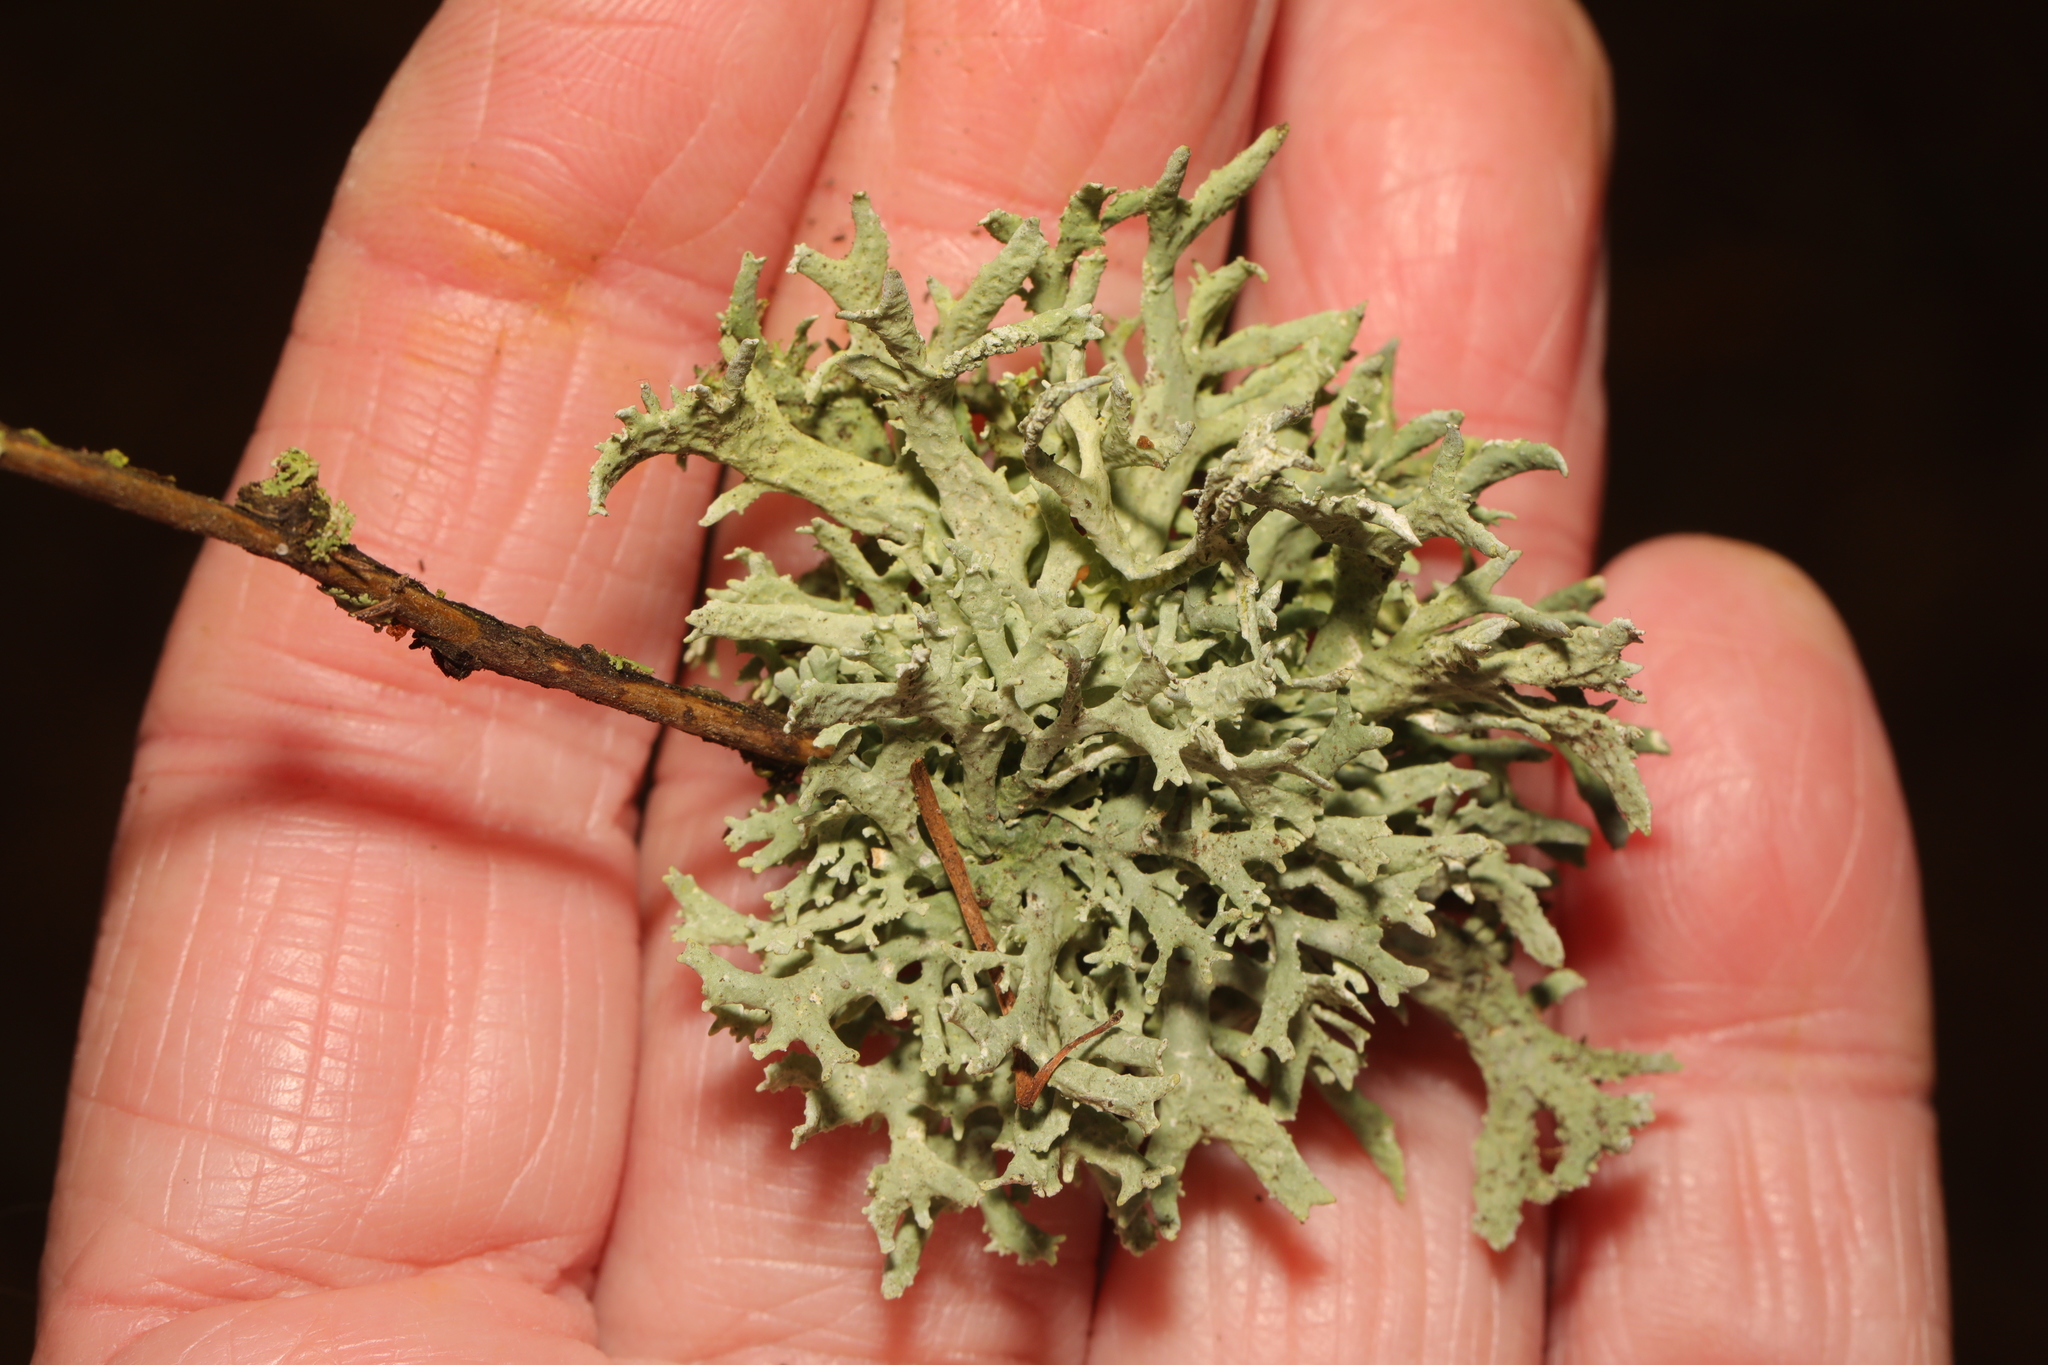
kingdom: Fungi
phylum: Ascomycota
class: Lecanoromycetes
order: Lecanorales
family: Parmeliaceae
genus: Evernia
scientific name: Evernia prunastri
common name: Oak moss
